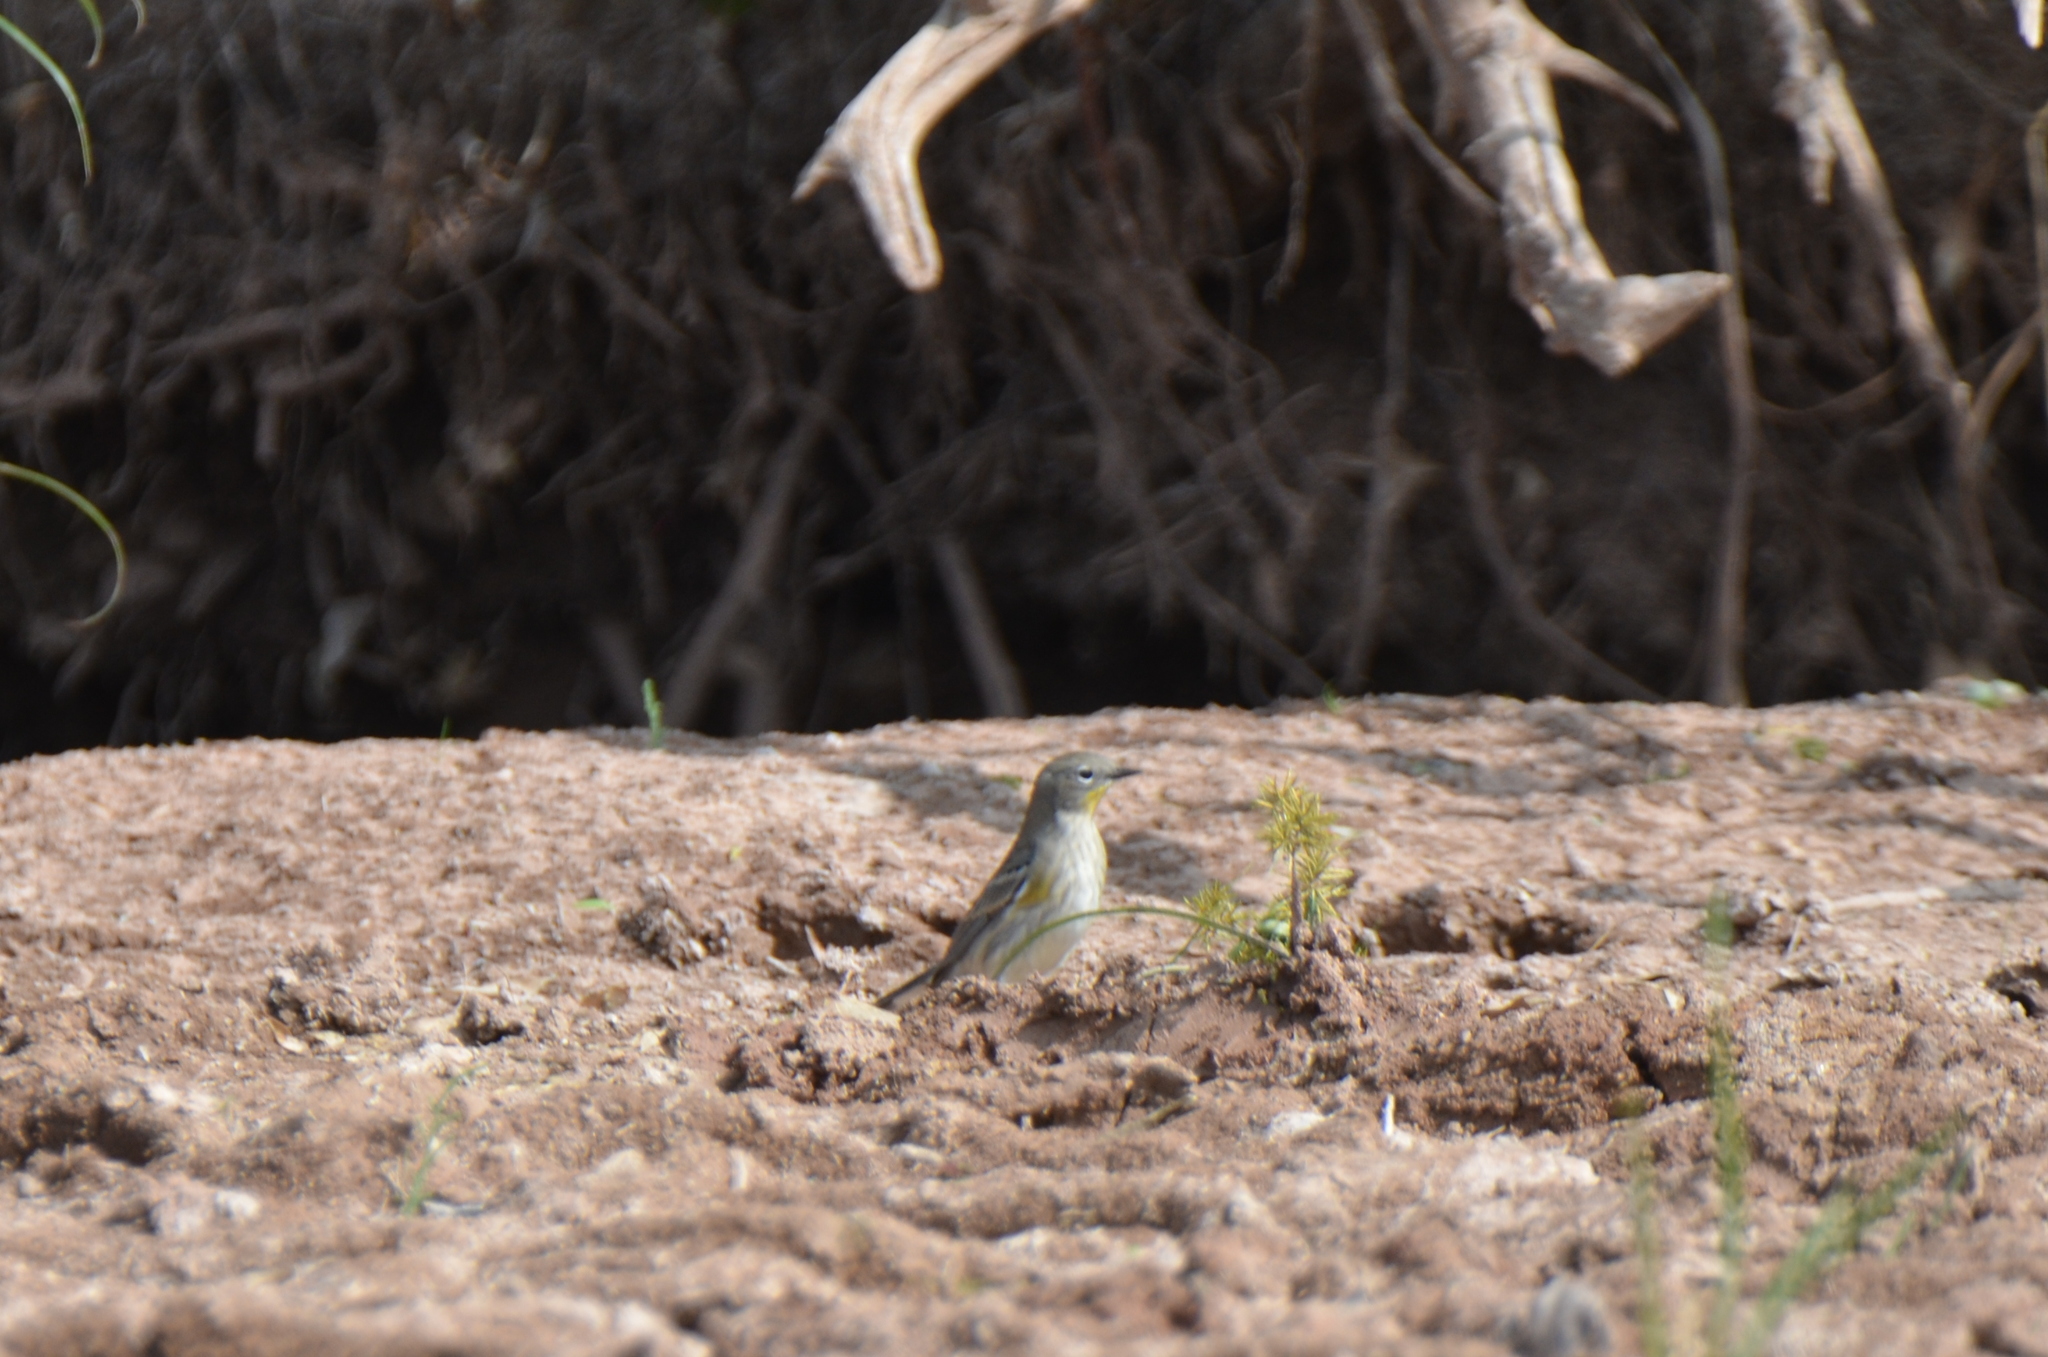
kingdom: Animalia
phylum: Chordata
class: Aves
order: Passeriformes
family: Parulidae
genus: Setophaga
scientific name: Setophaga coronata
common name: Myrtle warbler
